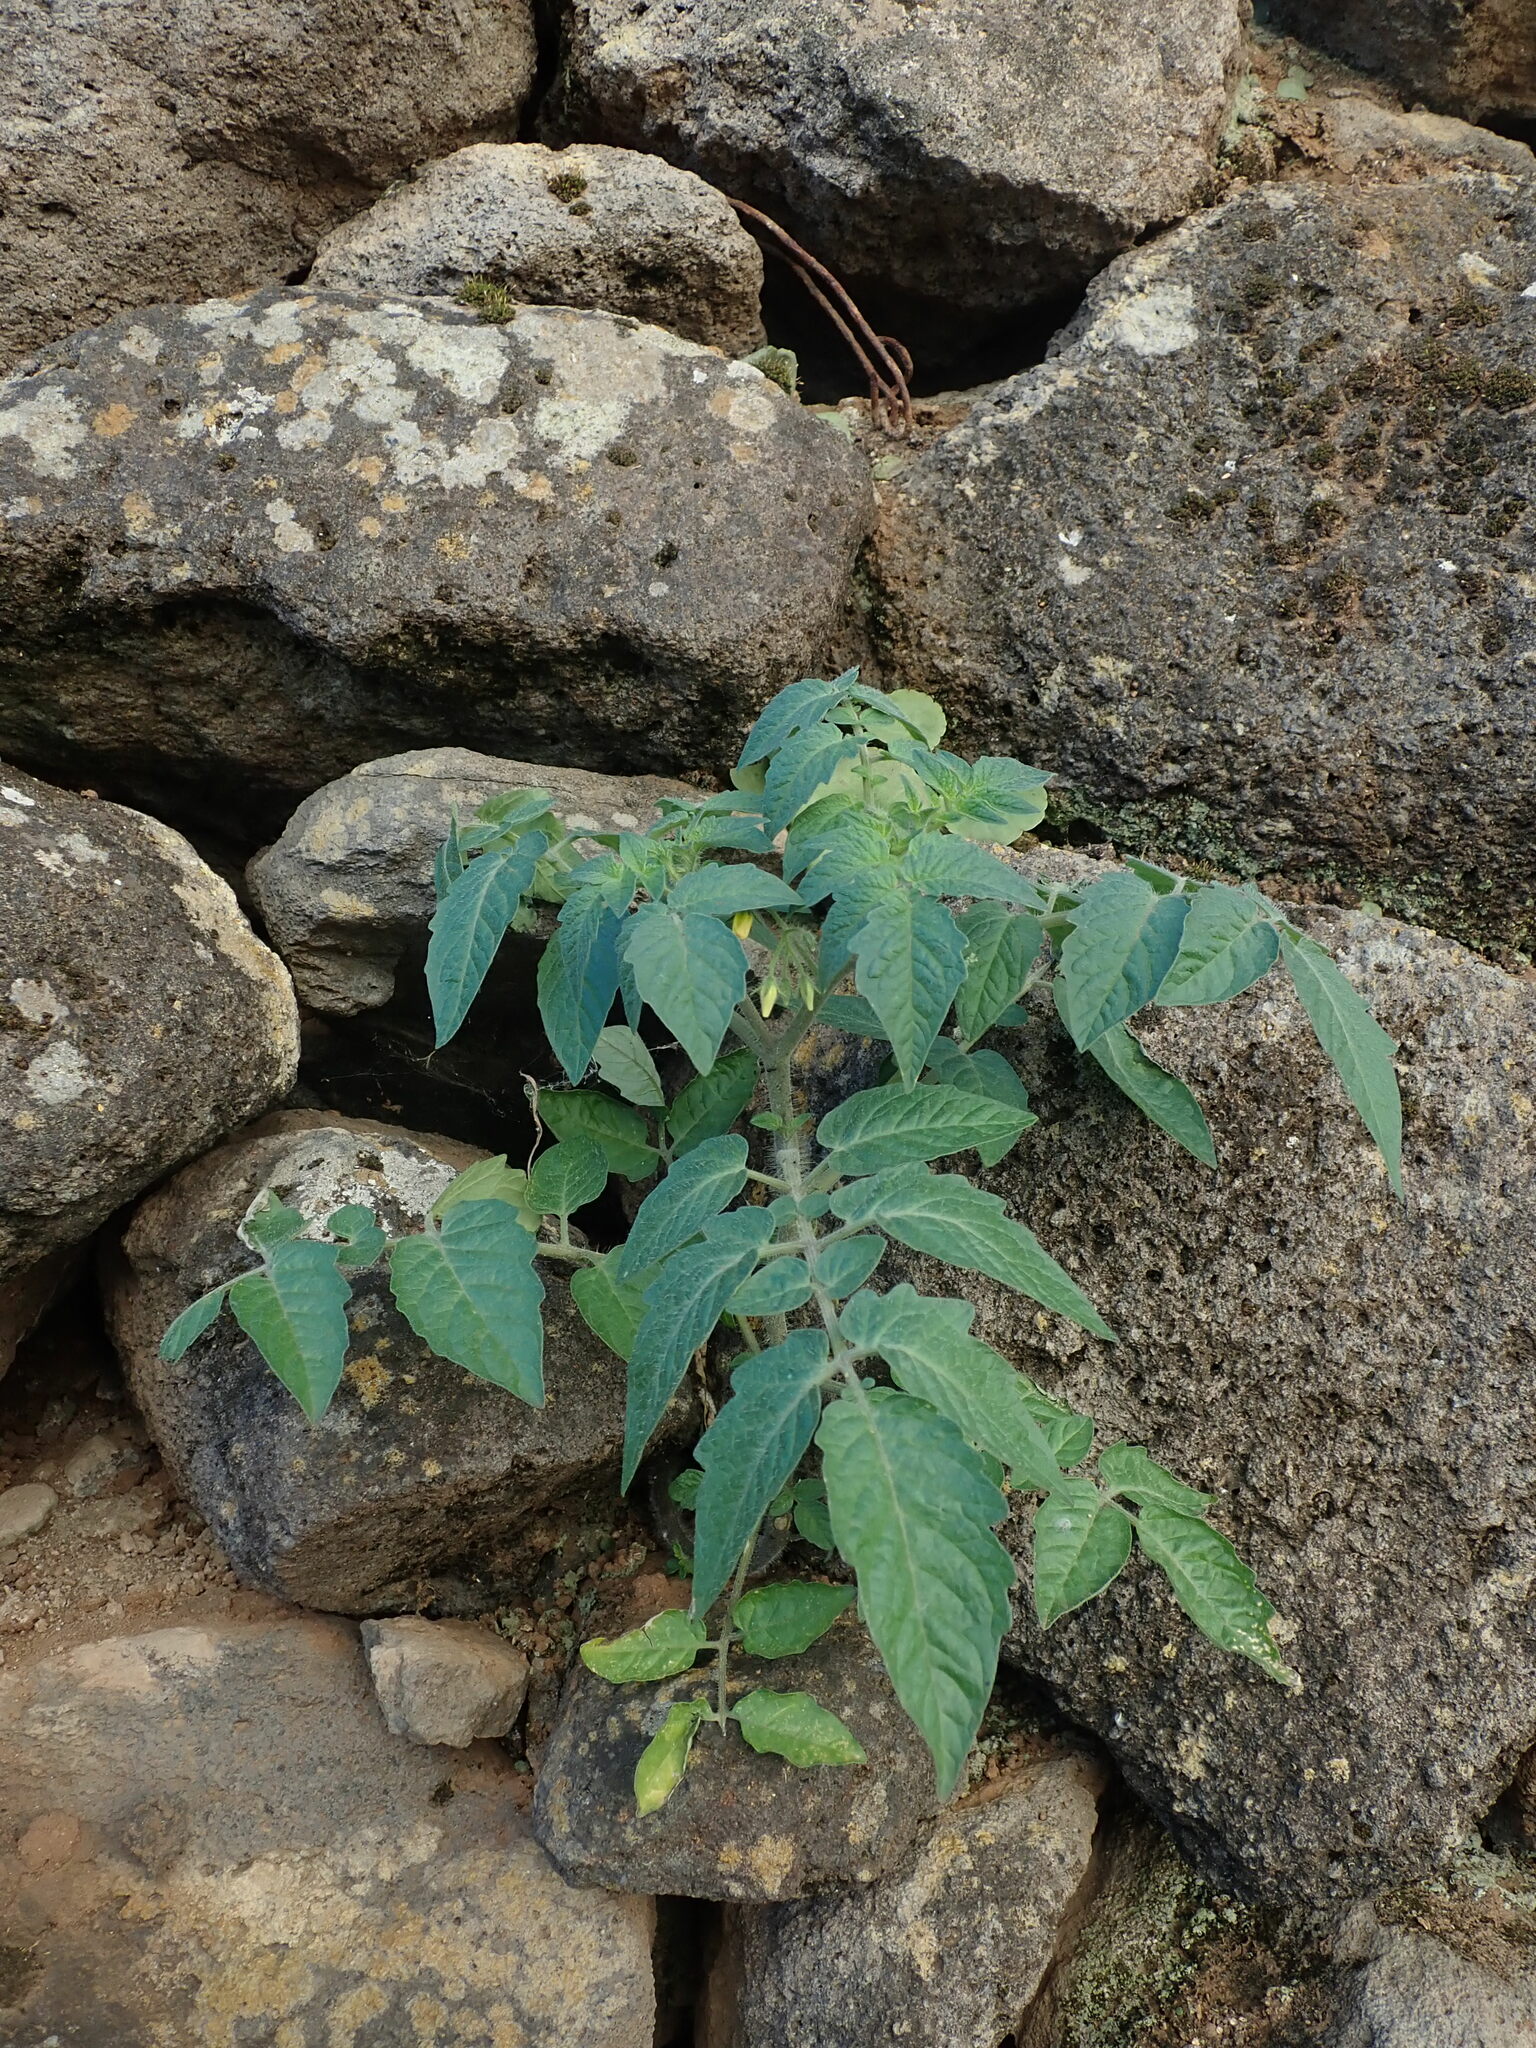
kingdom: Plantae
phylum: Tracheophyta
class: Magnoliopsida
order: Solanales
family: Solanaceae
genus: Solanum
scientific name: Solanum lycopersicum
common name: Garden tomato
